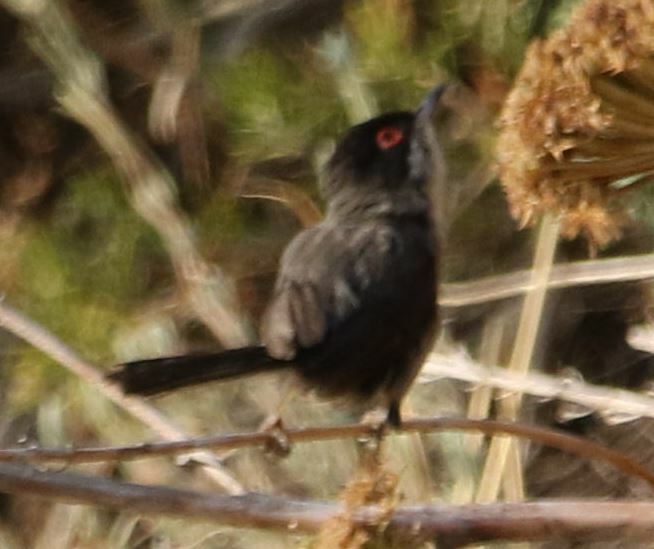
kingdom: Animalia
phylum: Chordata
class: Aves
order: Passeriformes
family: Sylviidae
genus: Curruca
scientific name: Curruca melanocephala
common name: Sardinian warbler
